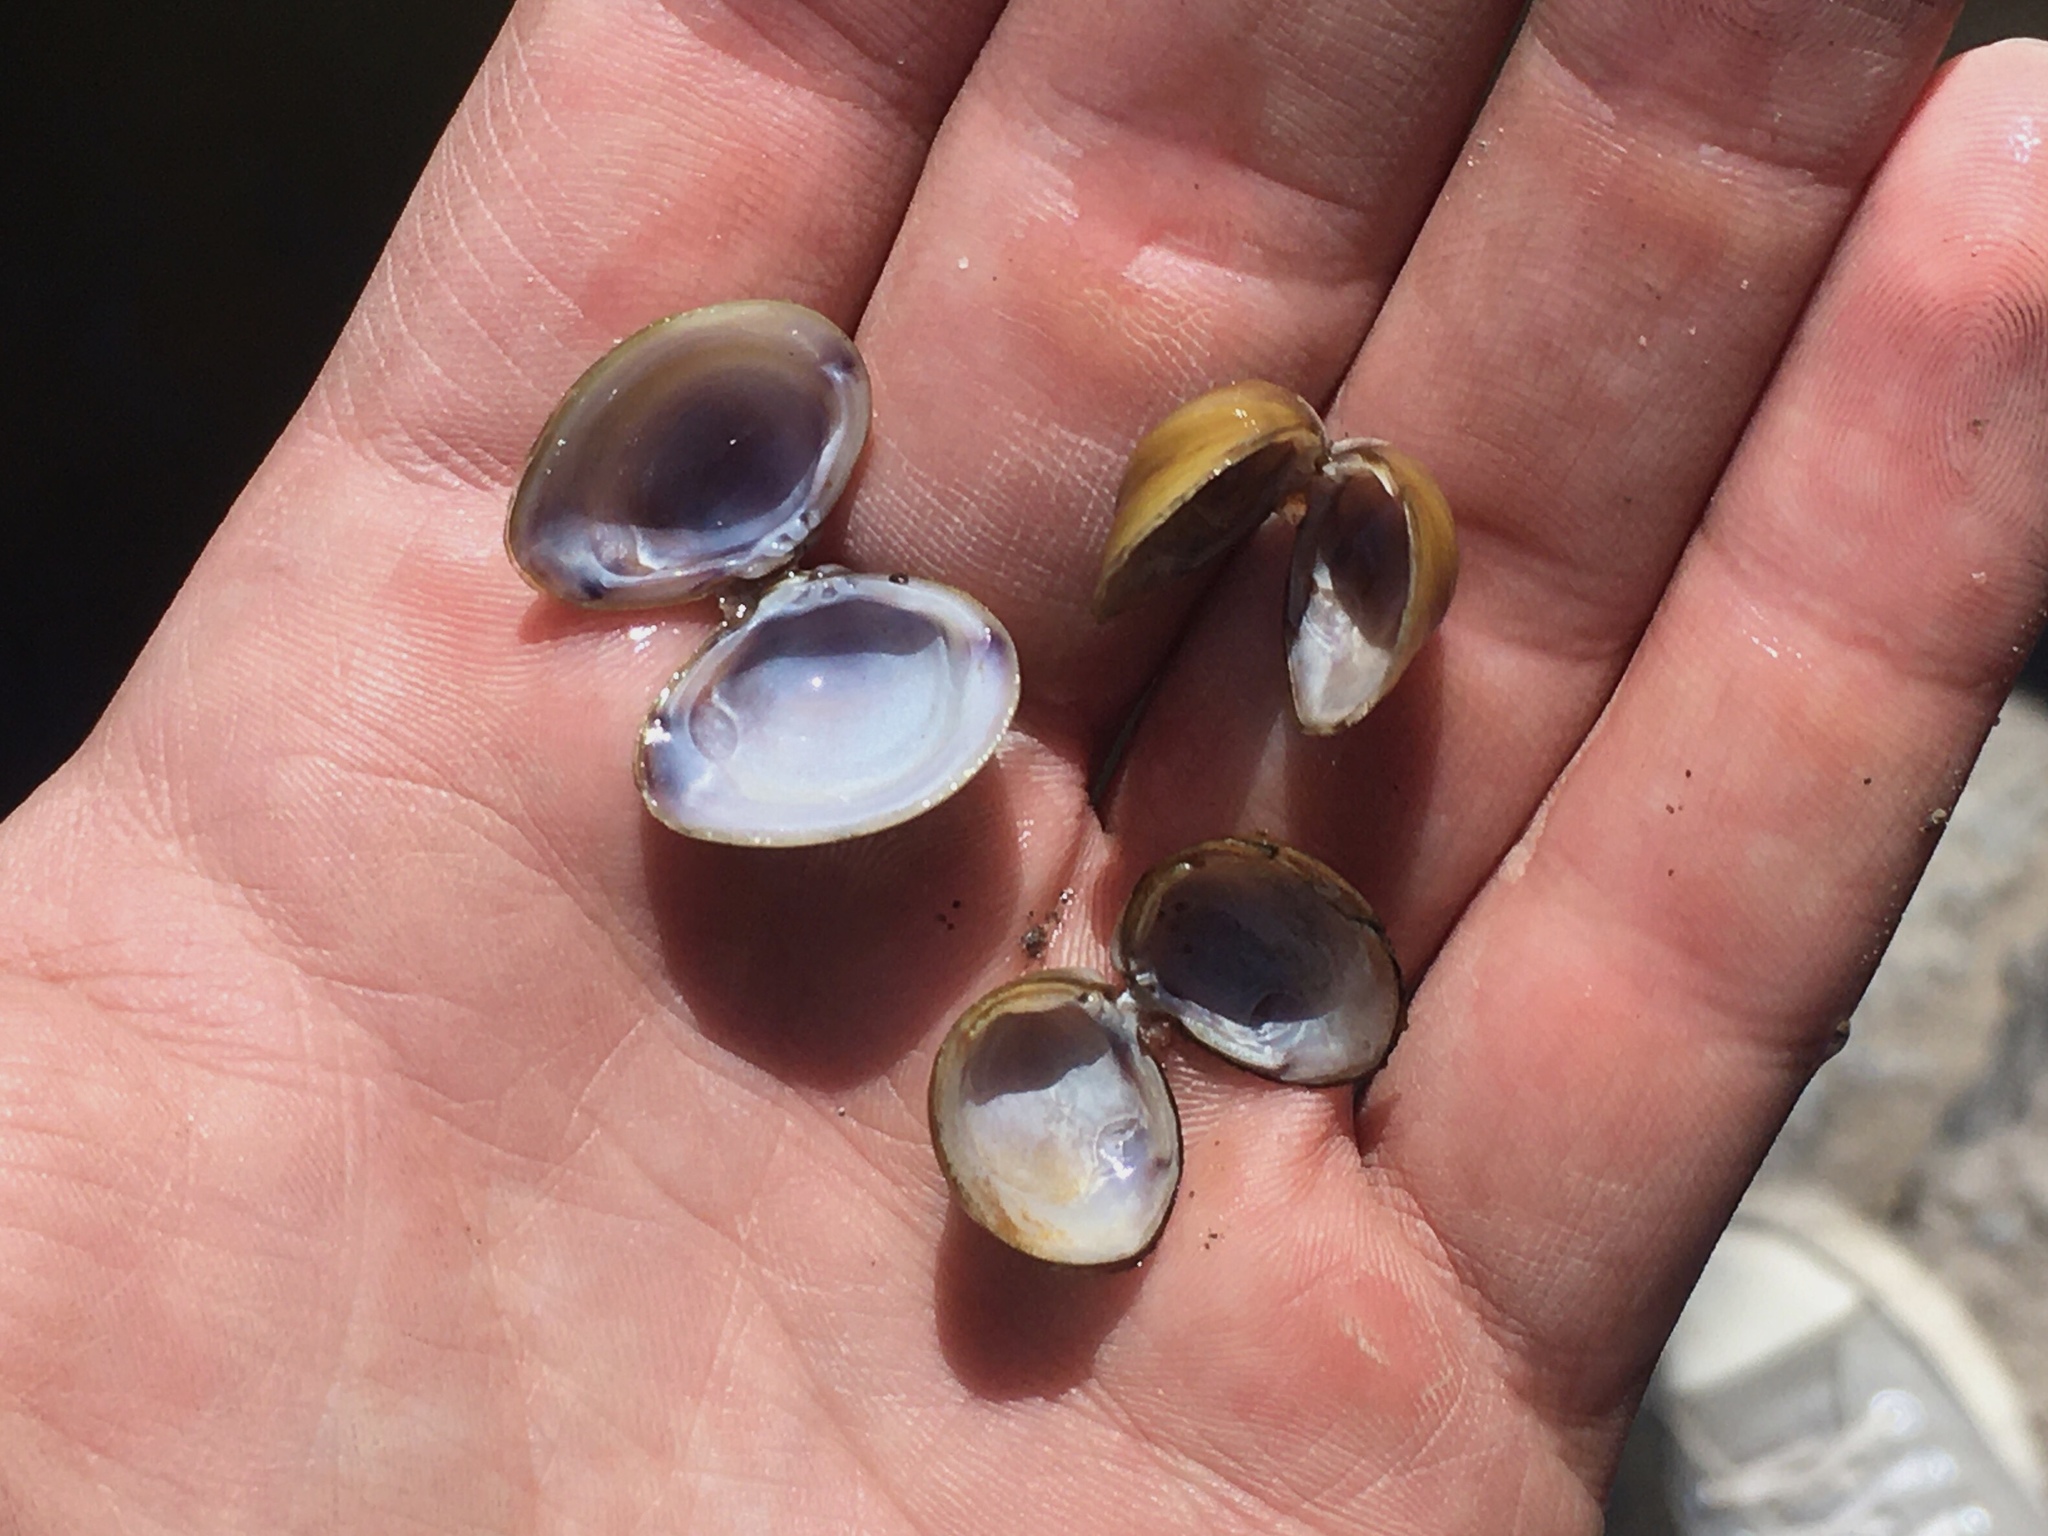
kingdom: Animalia
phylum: Mollusca
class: Bivalvia
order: Venerida
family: Cyrenidae
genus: Corbicula
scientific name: Corbicula fluminea
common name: Asian clam
